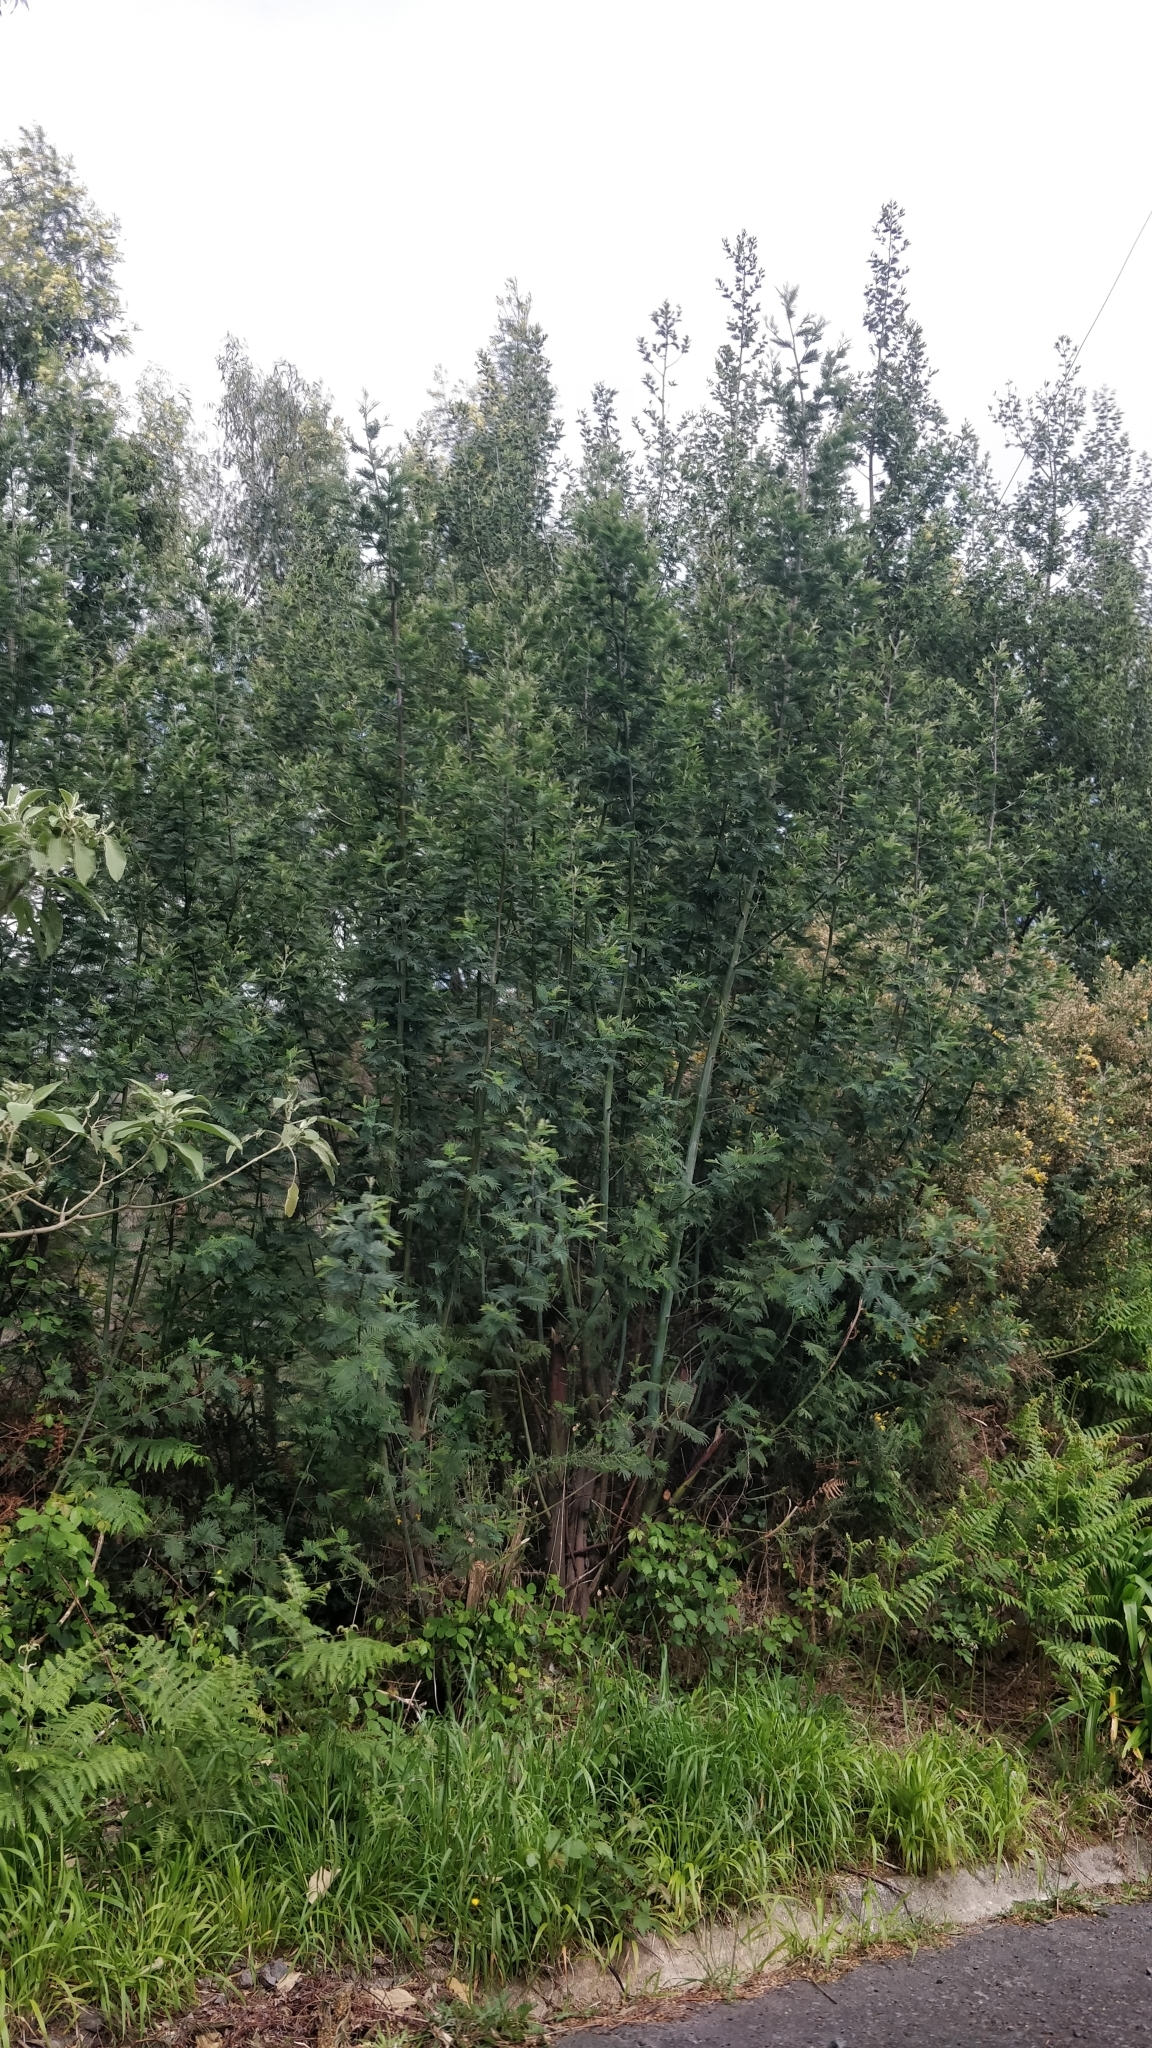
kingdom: Plantae
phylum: Tracheophyta
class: Magnoliopsida
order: Fabales
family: Fabaceae
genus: Acacia
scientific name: Acacia mearnsii
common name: Black wattle
